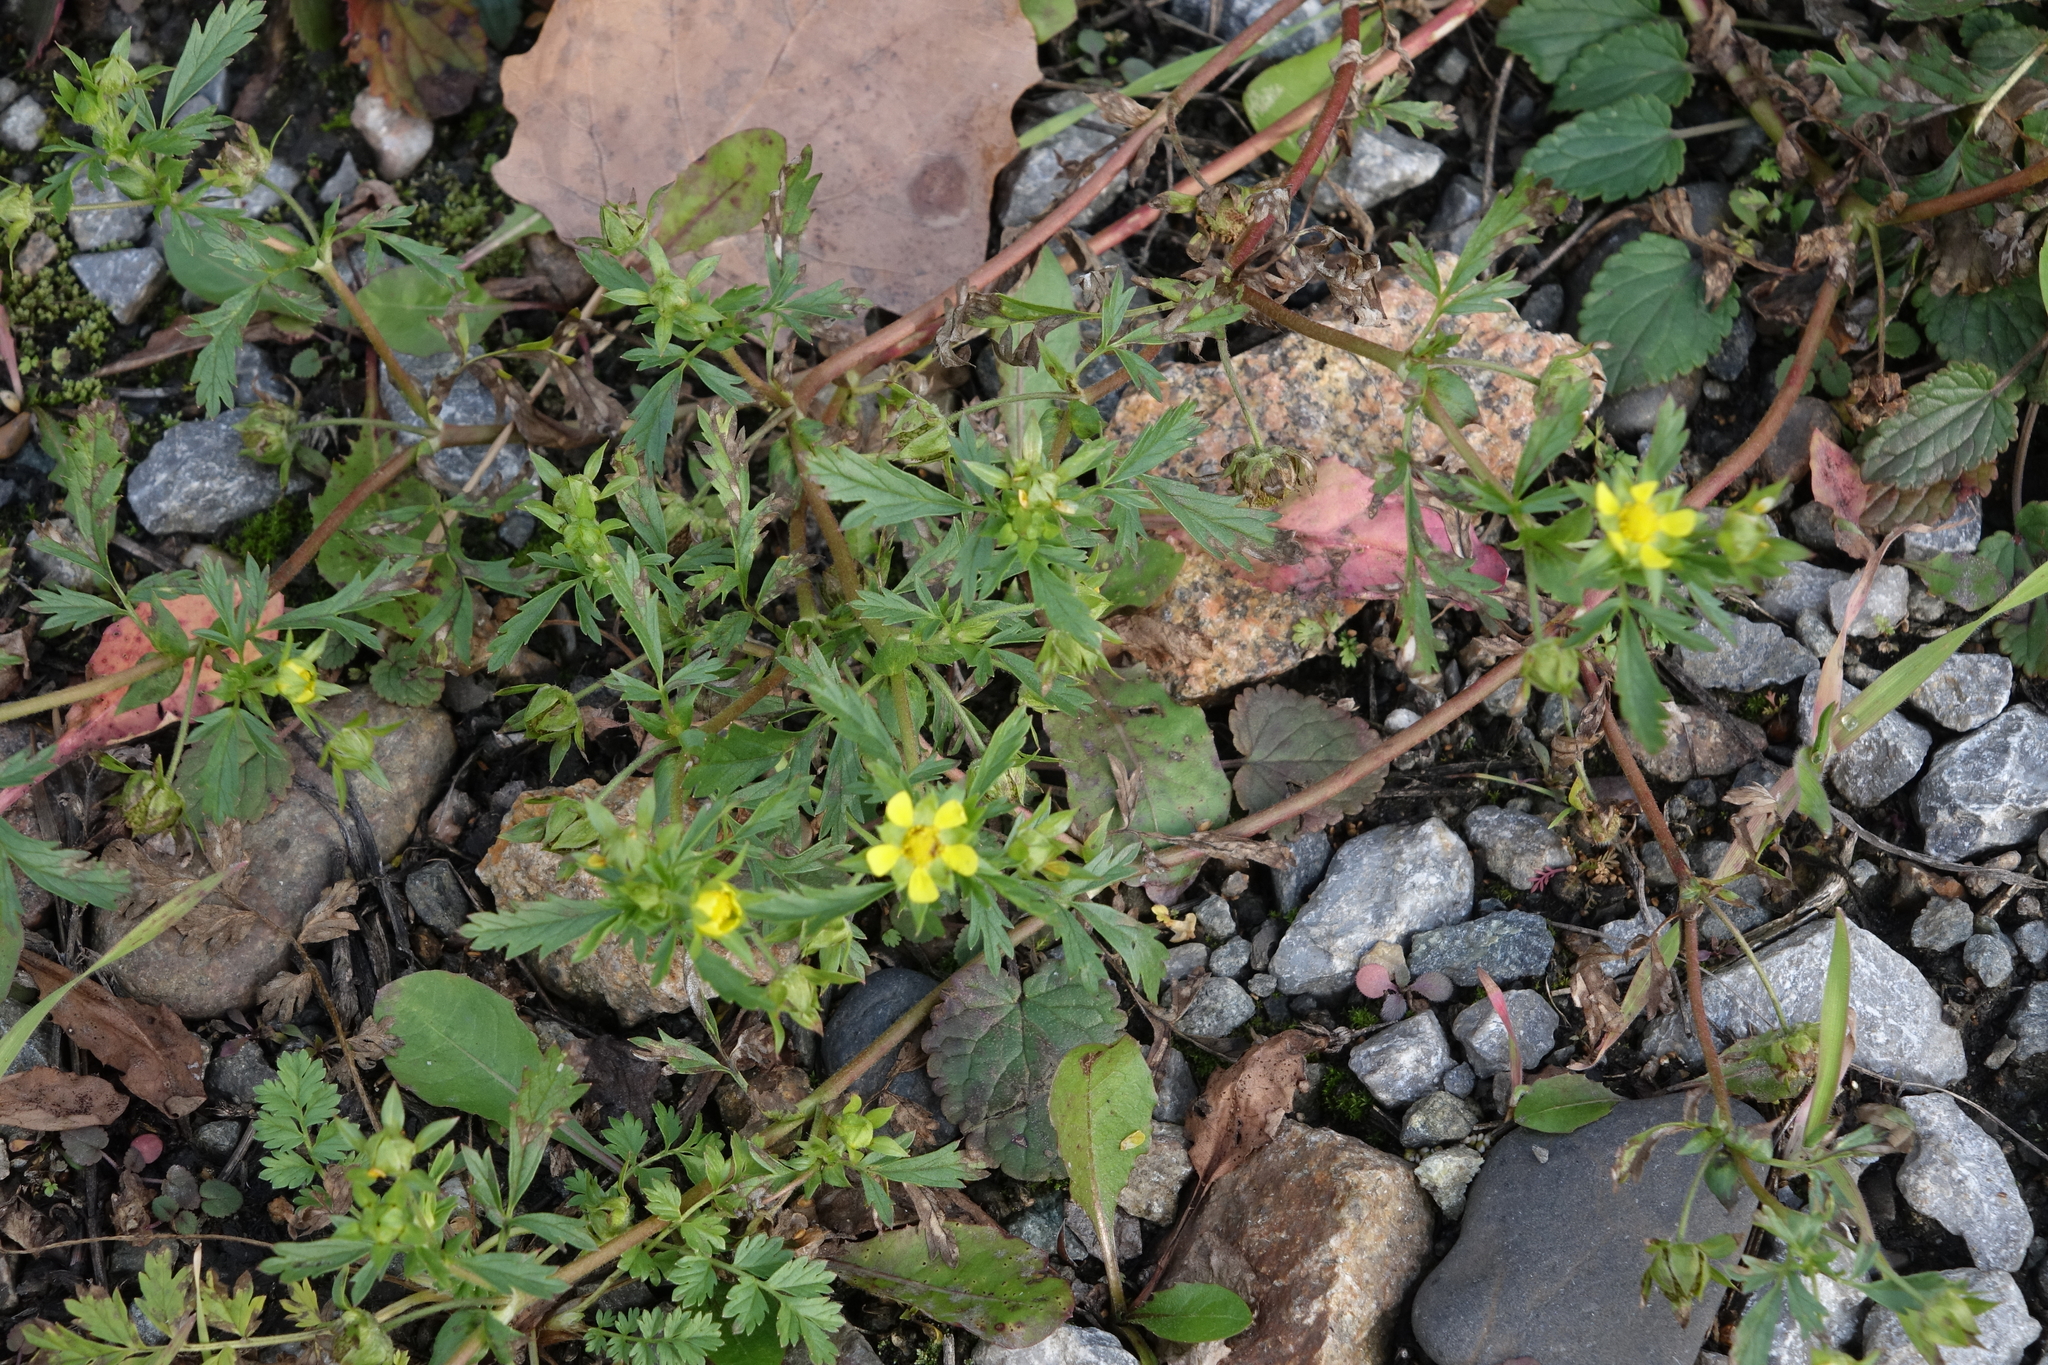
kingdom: Plantae
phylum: Tracheophyta
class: Magnoliopsida
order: Rosales
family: Rosaceae
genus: Potentilla
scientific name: Potentilla supina
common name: Prostrate cinquefoil
